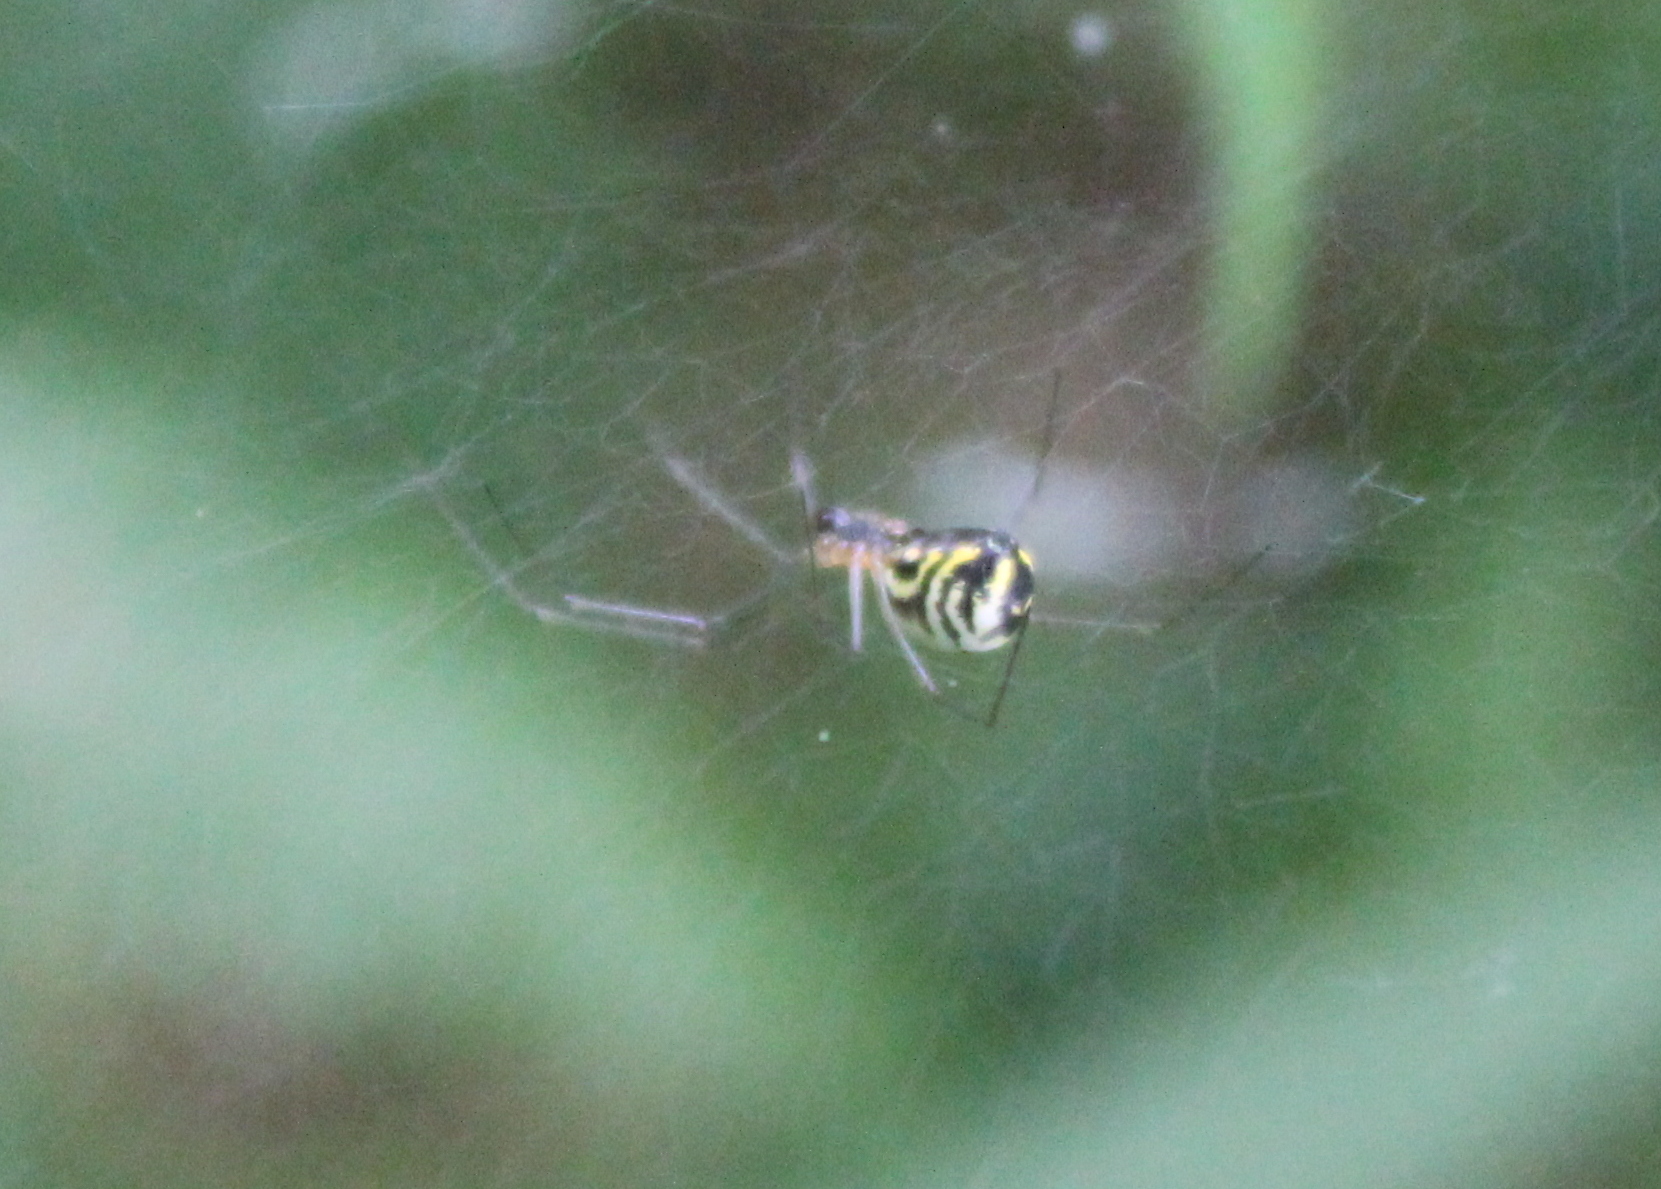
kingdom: Animalia
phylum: Arthropoda
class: Arachnida
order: Araneae
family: Linyphiidae
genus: Neriene
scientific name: Neriene radiata
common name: Filmy dome spider
